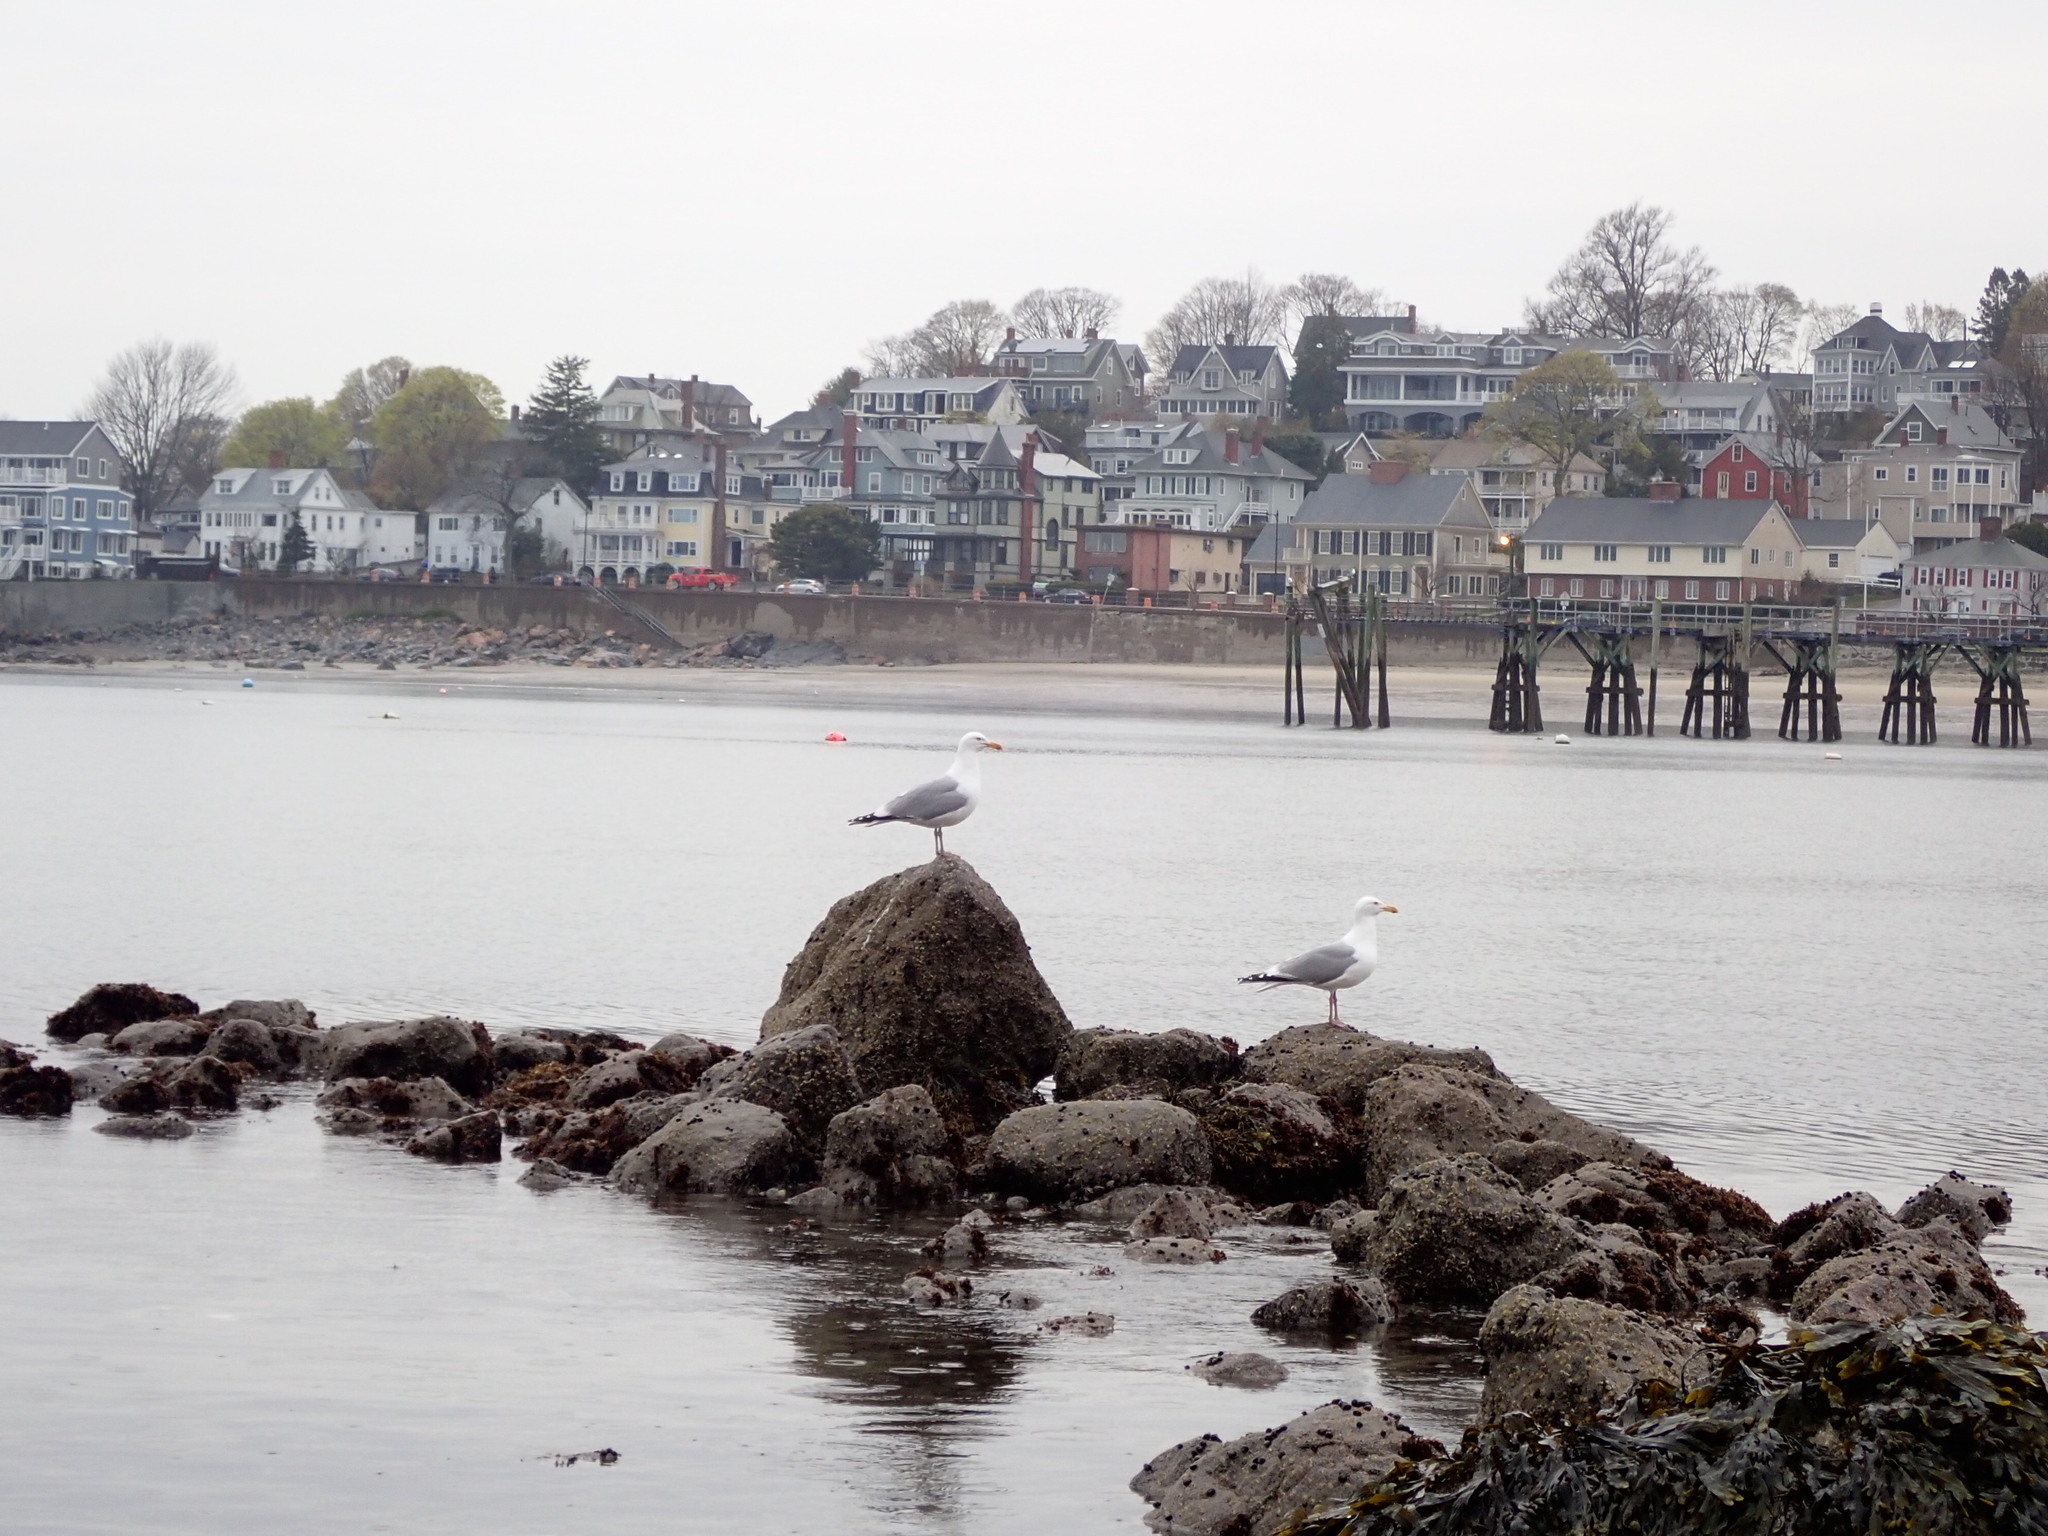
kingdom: Animalia
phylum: Chordata
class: Aves
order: Charadriiformes
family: Laridae
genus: Larus
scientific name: Larus argentatus
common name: Herring gull
